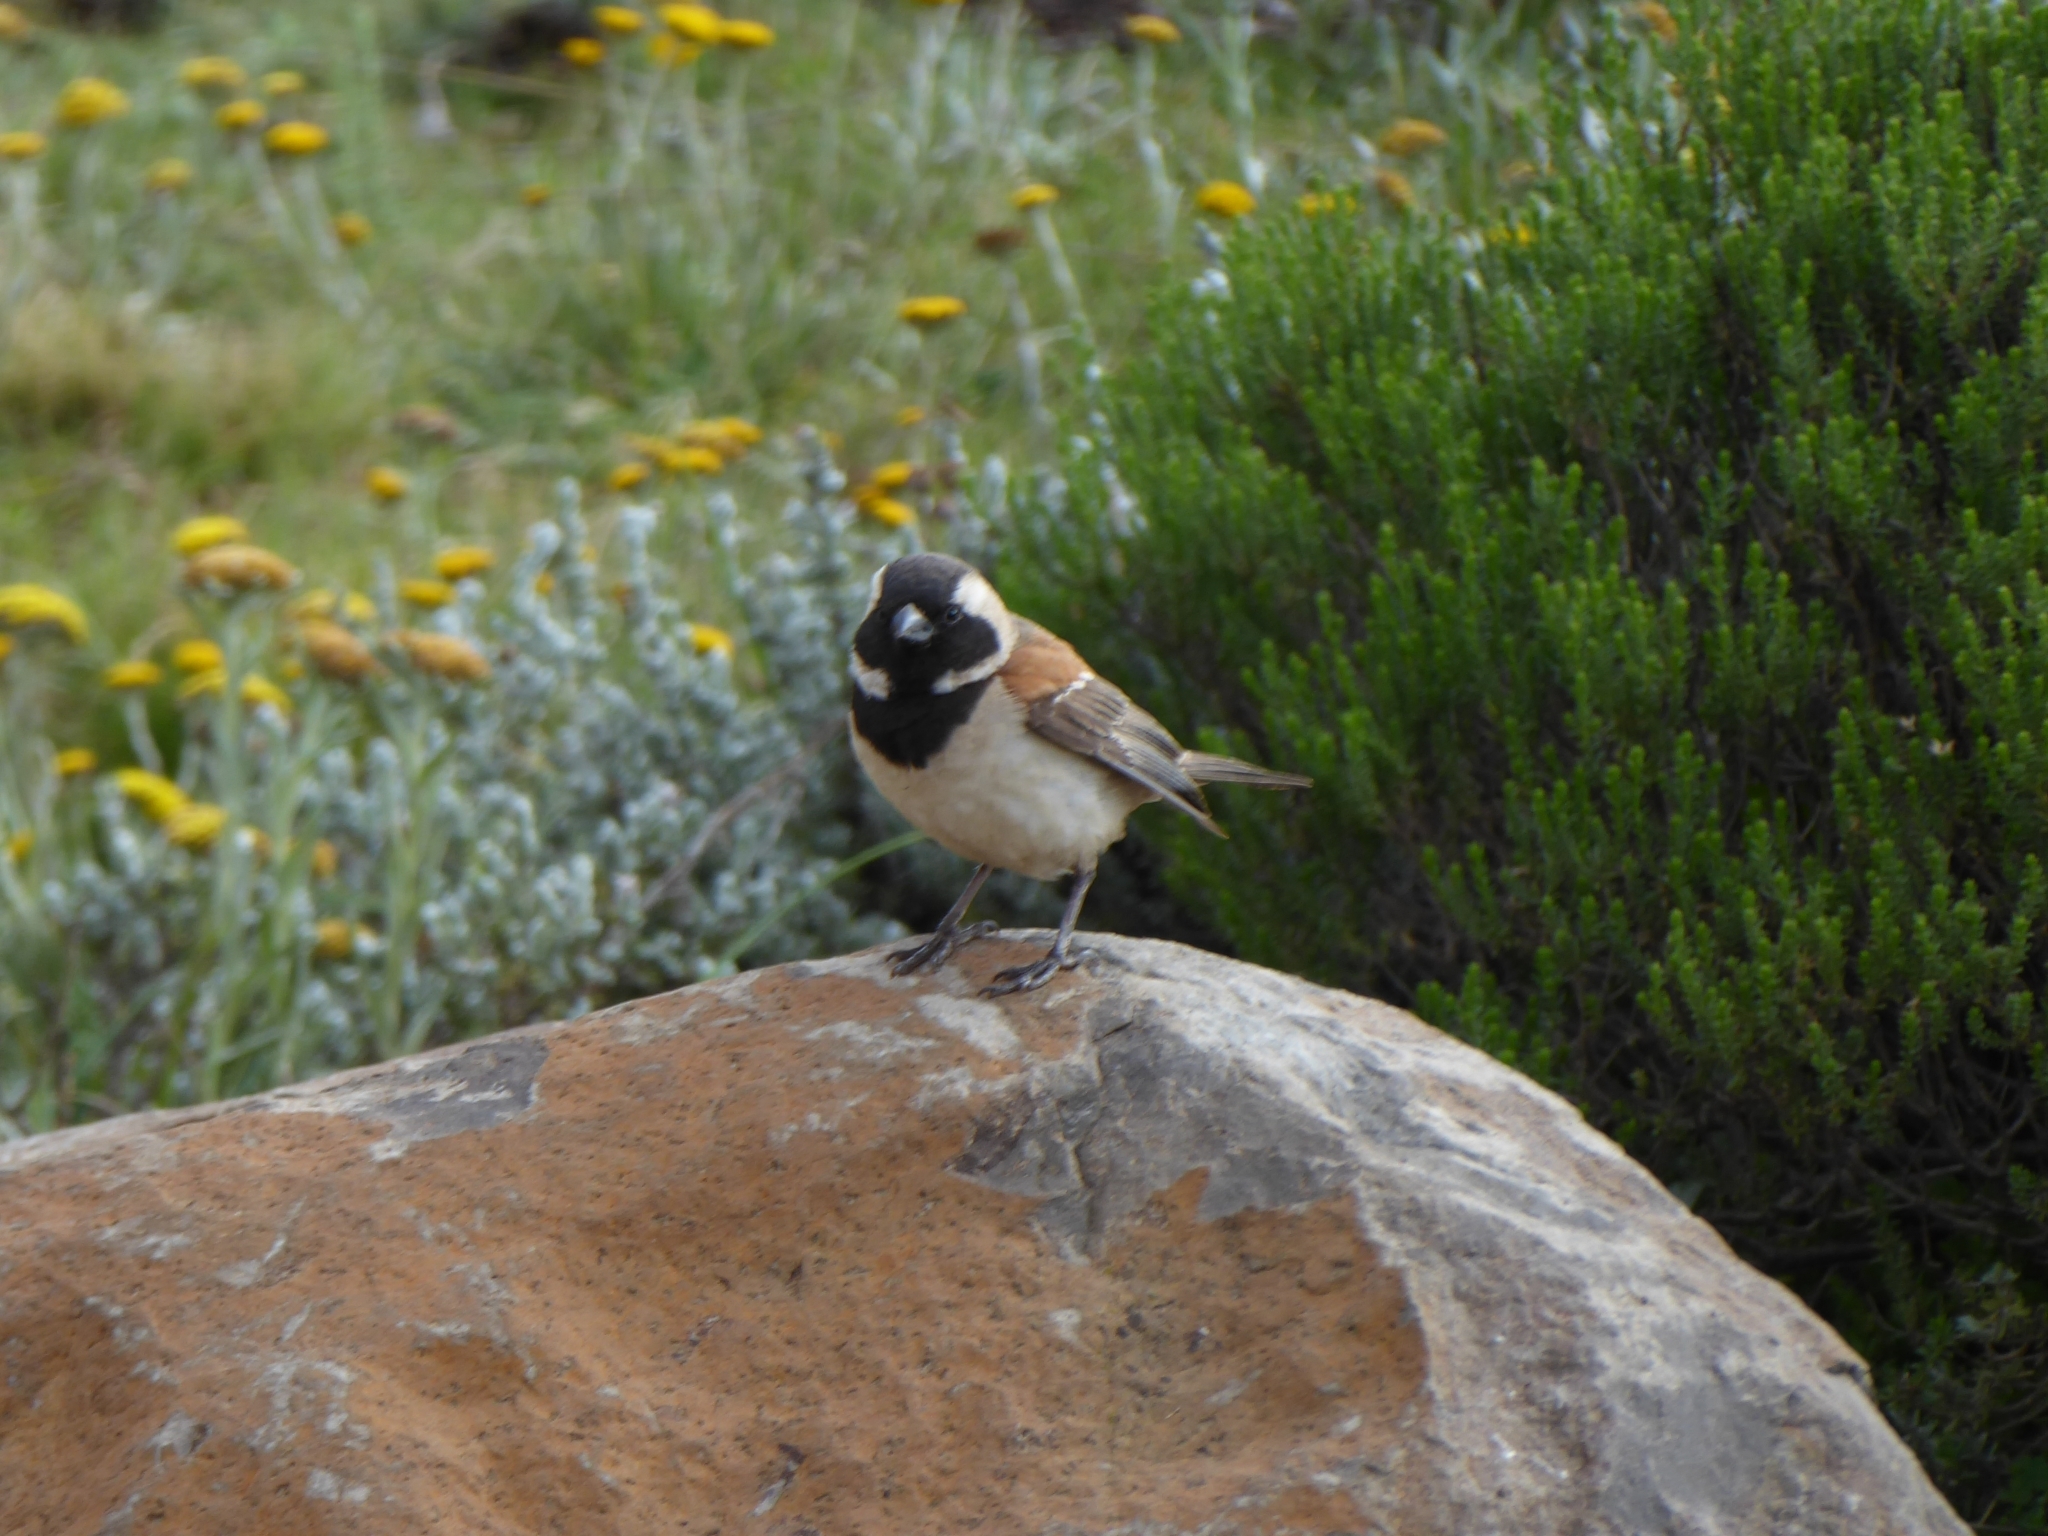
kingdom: Animalia
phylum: Chordata
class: Aves
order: Passeriformes
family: Passeridae
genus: Passer
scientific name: Passer melanurus
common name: Cape sparrow
